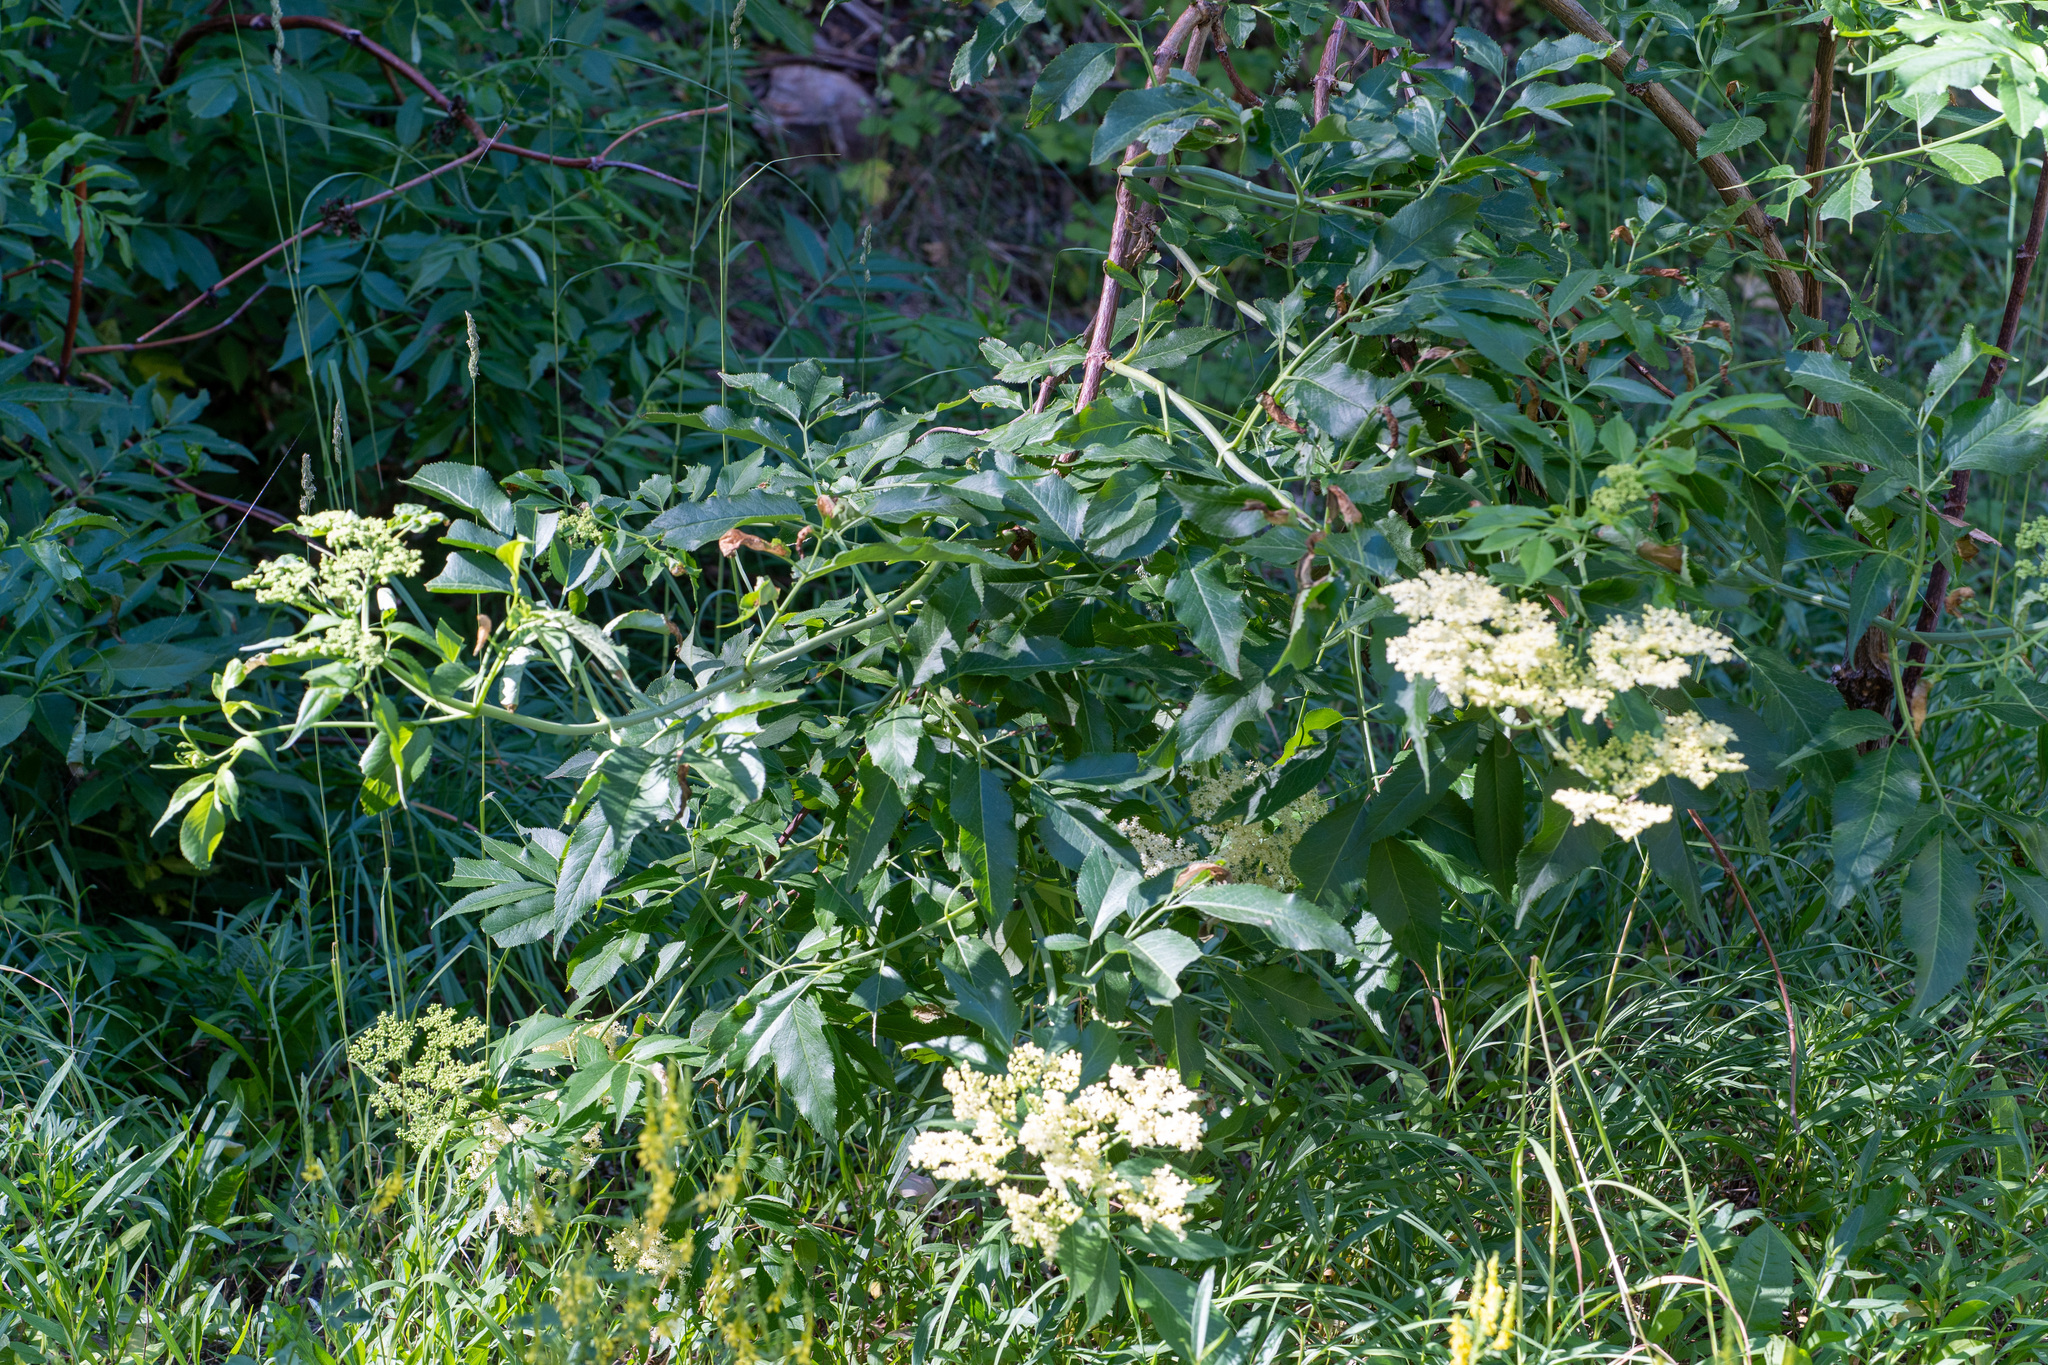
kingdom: Plantae
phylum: Tracheophyta
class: Magnoliopsida
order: Dipsacales
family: Viburnaceae
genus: Sambucus
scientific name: Sambucus cerulea
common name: Blue elder
